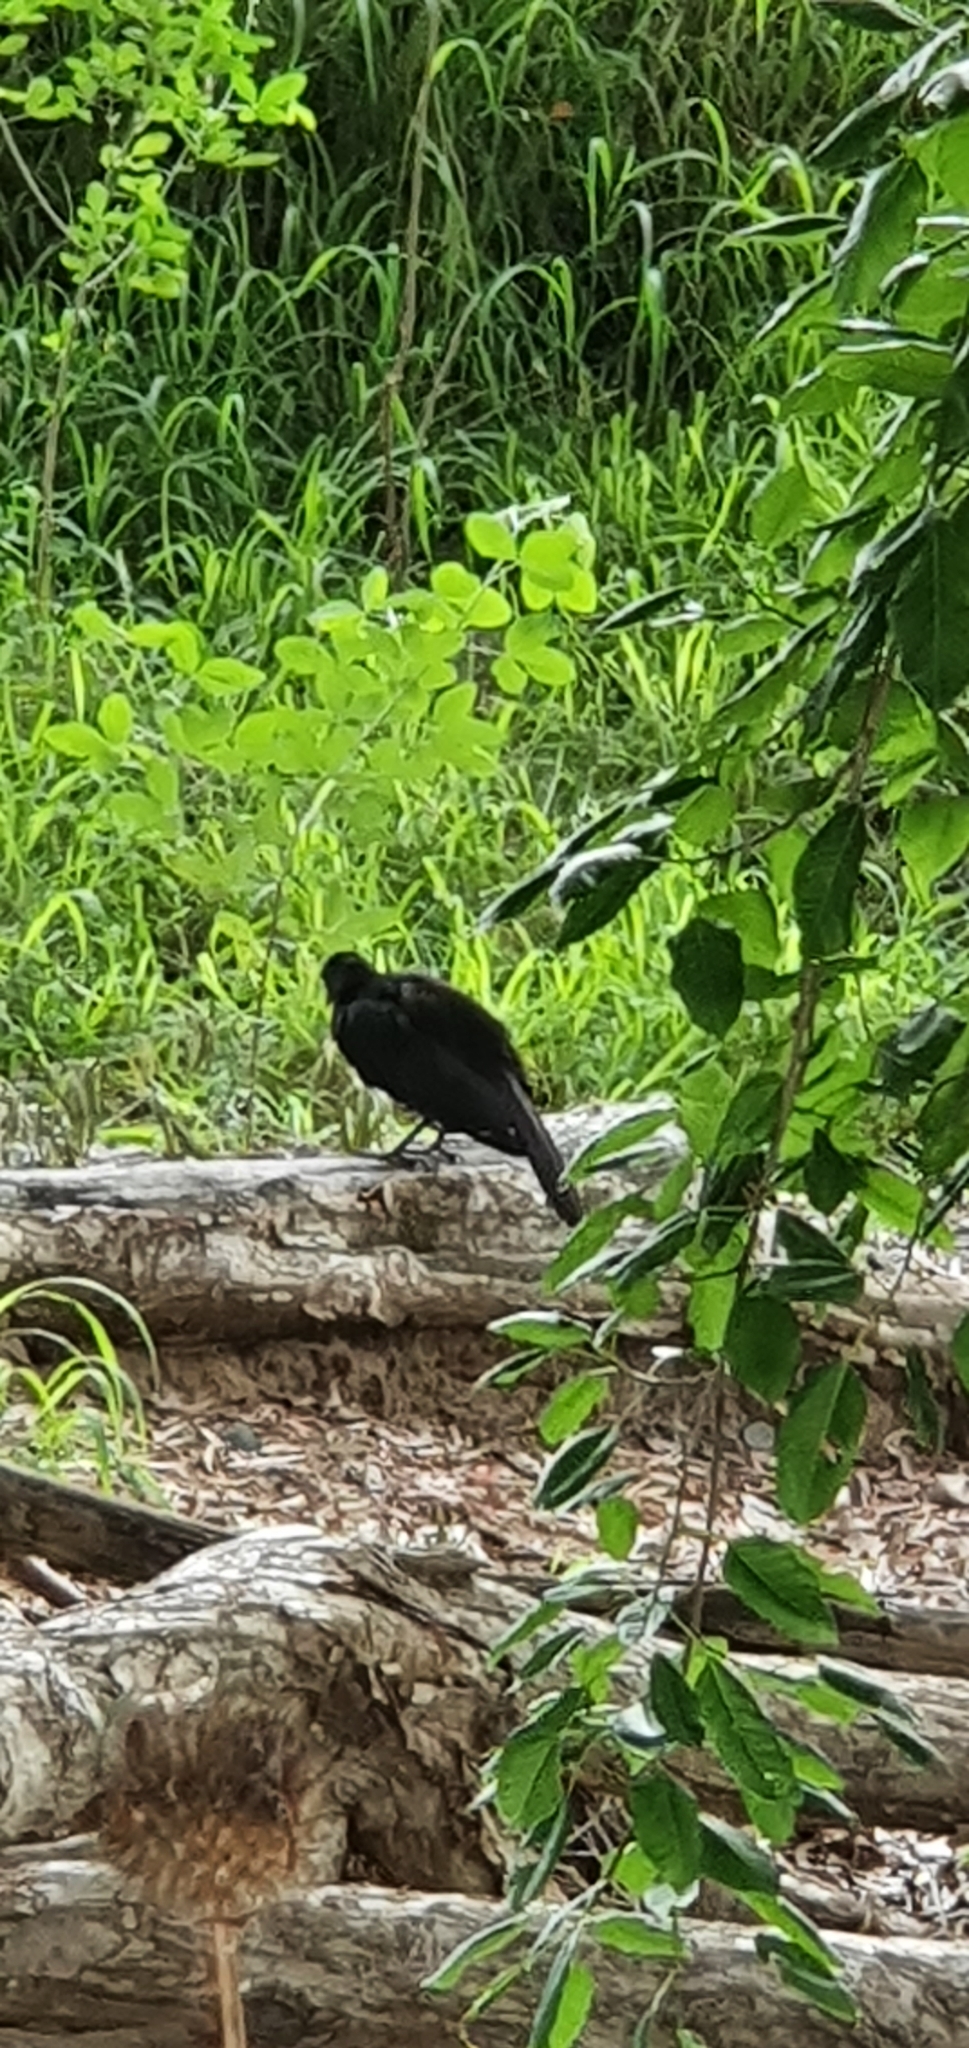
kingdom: Animalia
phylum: Chordata
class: Aves
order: Passeriformes
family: Corcoracidae
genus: Corcorax
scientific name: Corcorax melanoramphos
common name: White-winged chough
